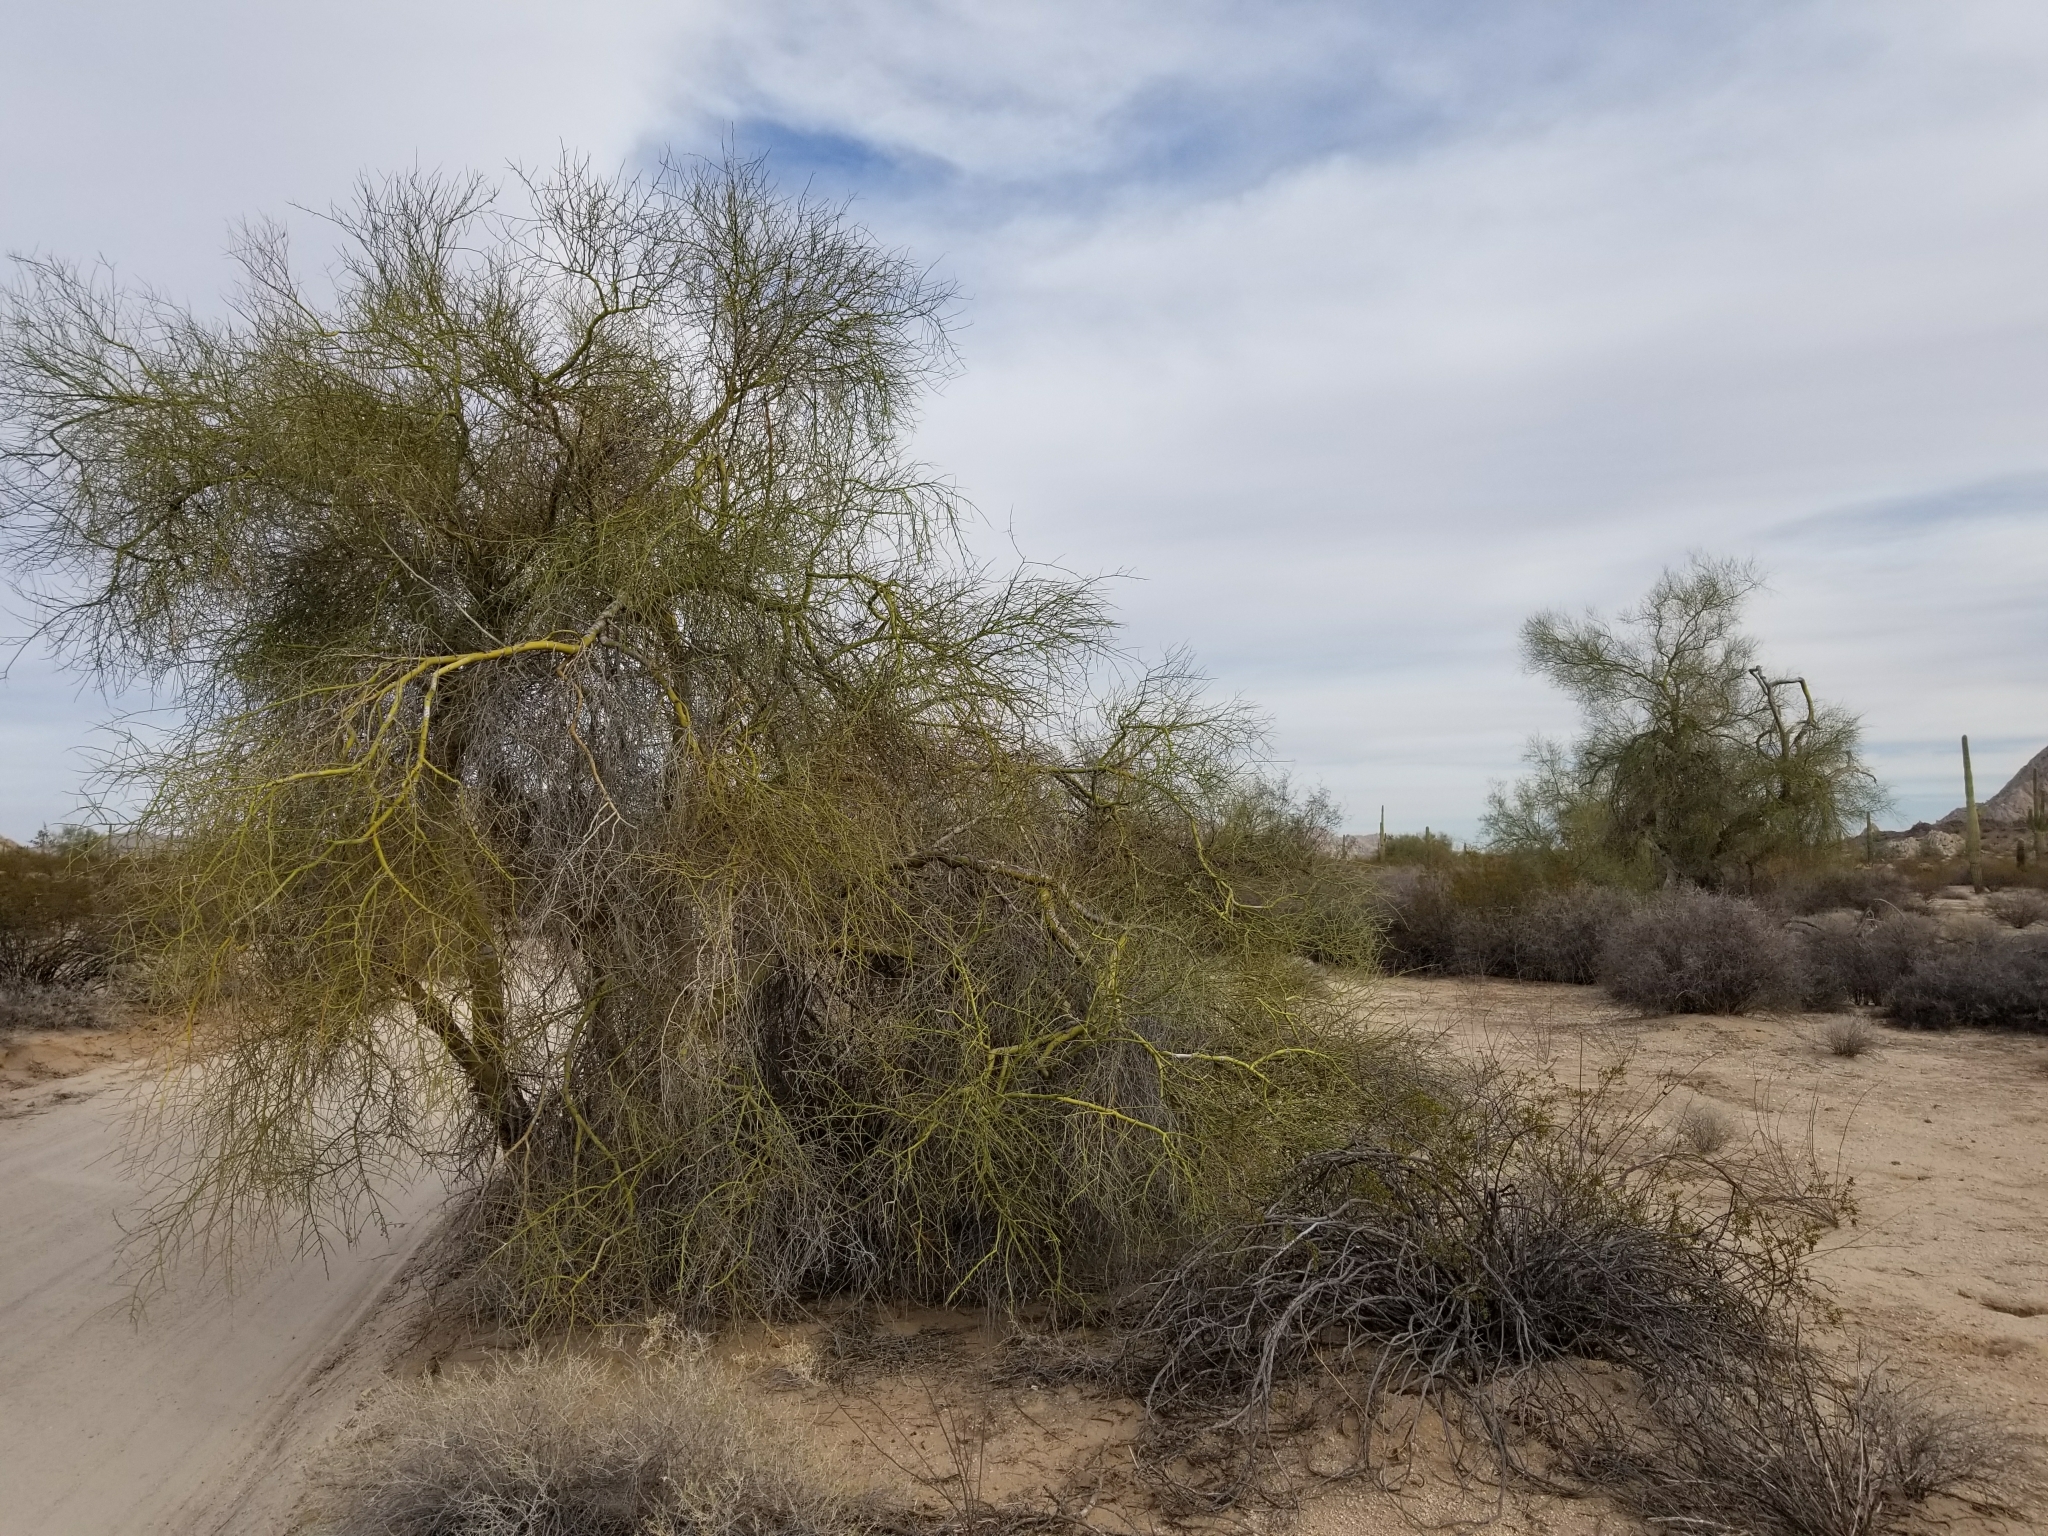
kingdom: Plantae
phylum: Tracheophyta
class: Magnoliopsida
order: Fabales
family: Fabaceae
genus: Parkinsonia
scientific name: Parkinsonia florida
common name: Blue paloverde
